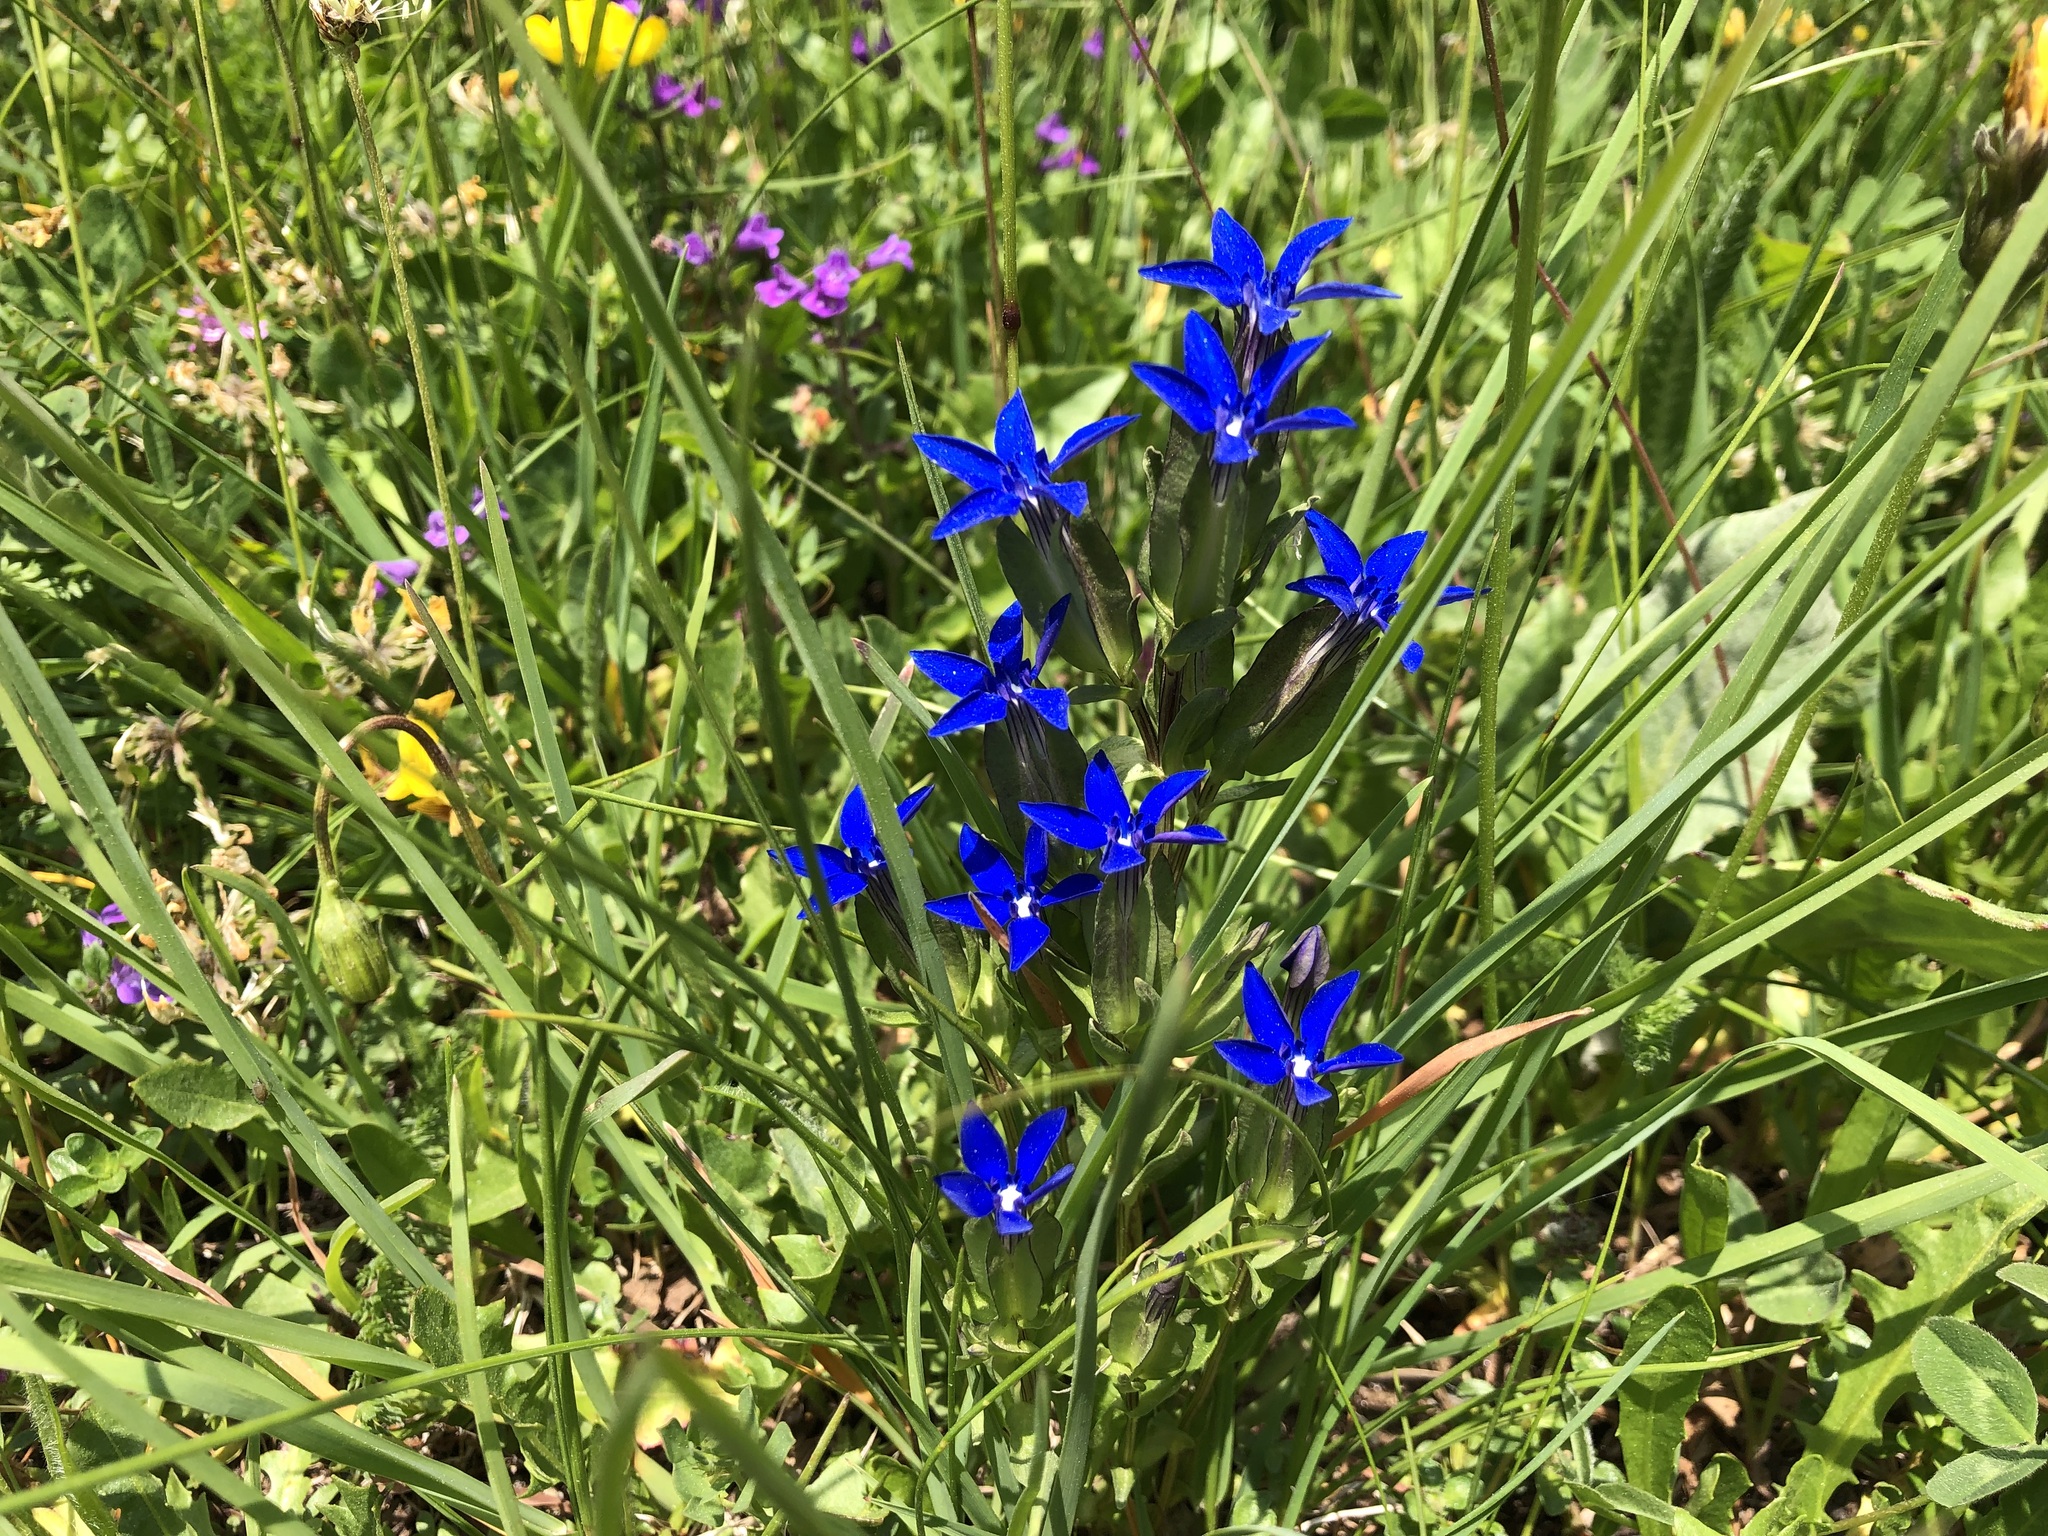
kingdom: Plantae
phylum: Tracheophyta
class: Magnoliopsida
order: Gentianales
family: Gentianaceae
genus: Gentiana
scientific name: Gentiana utriculosa
